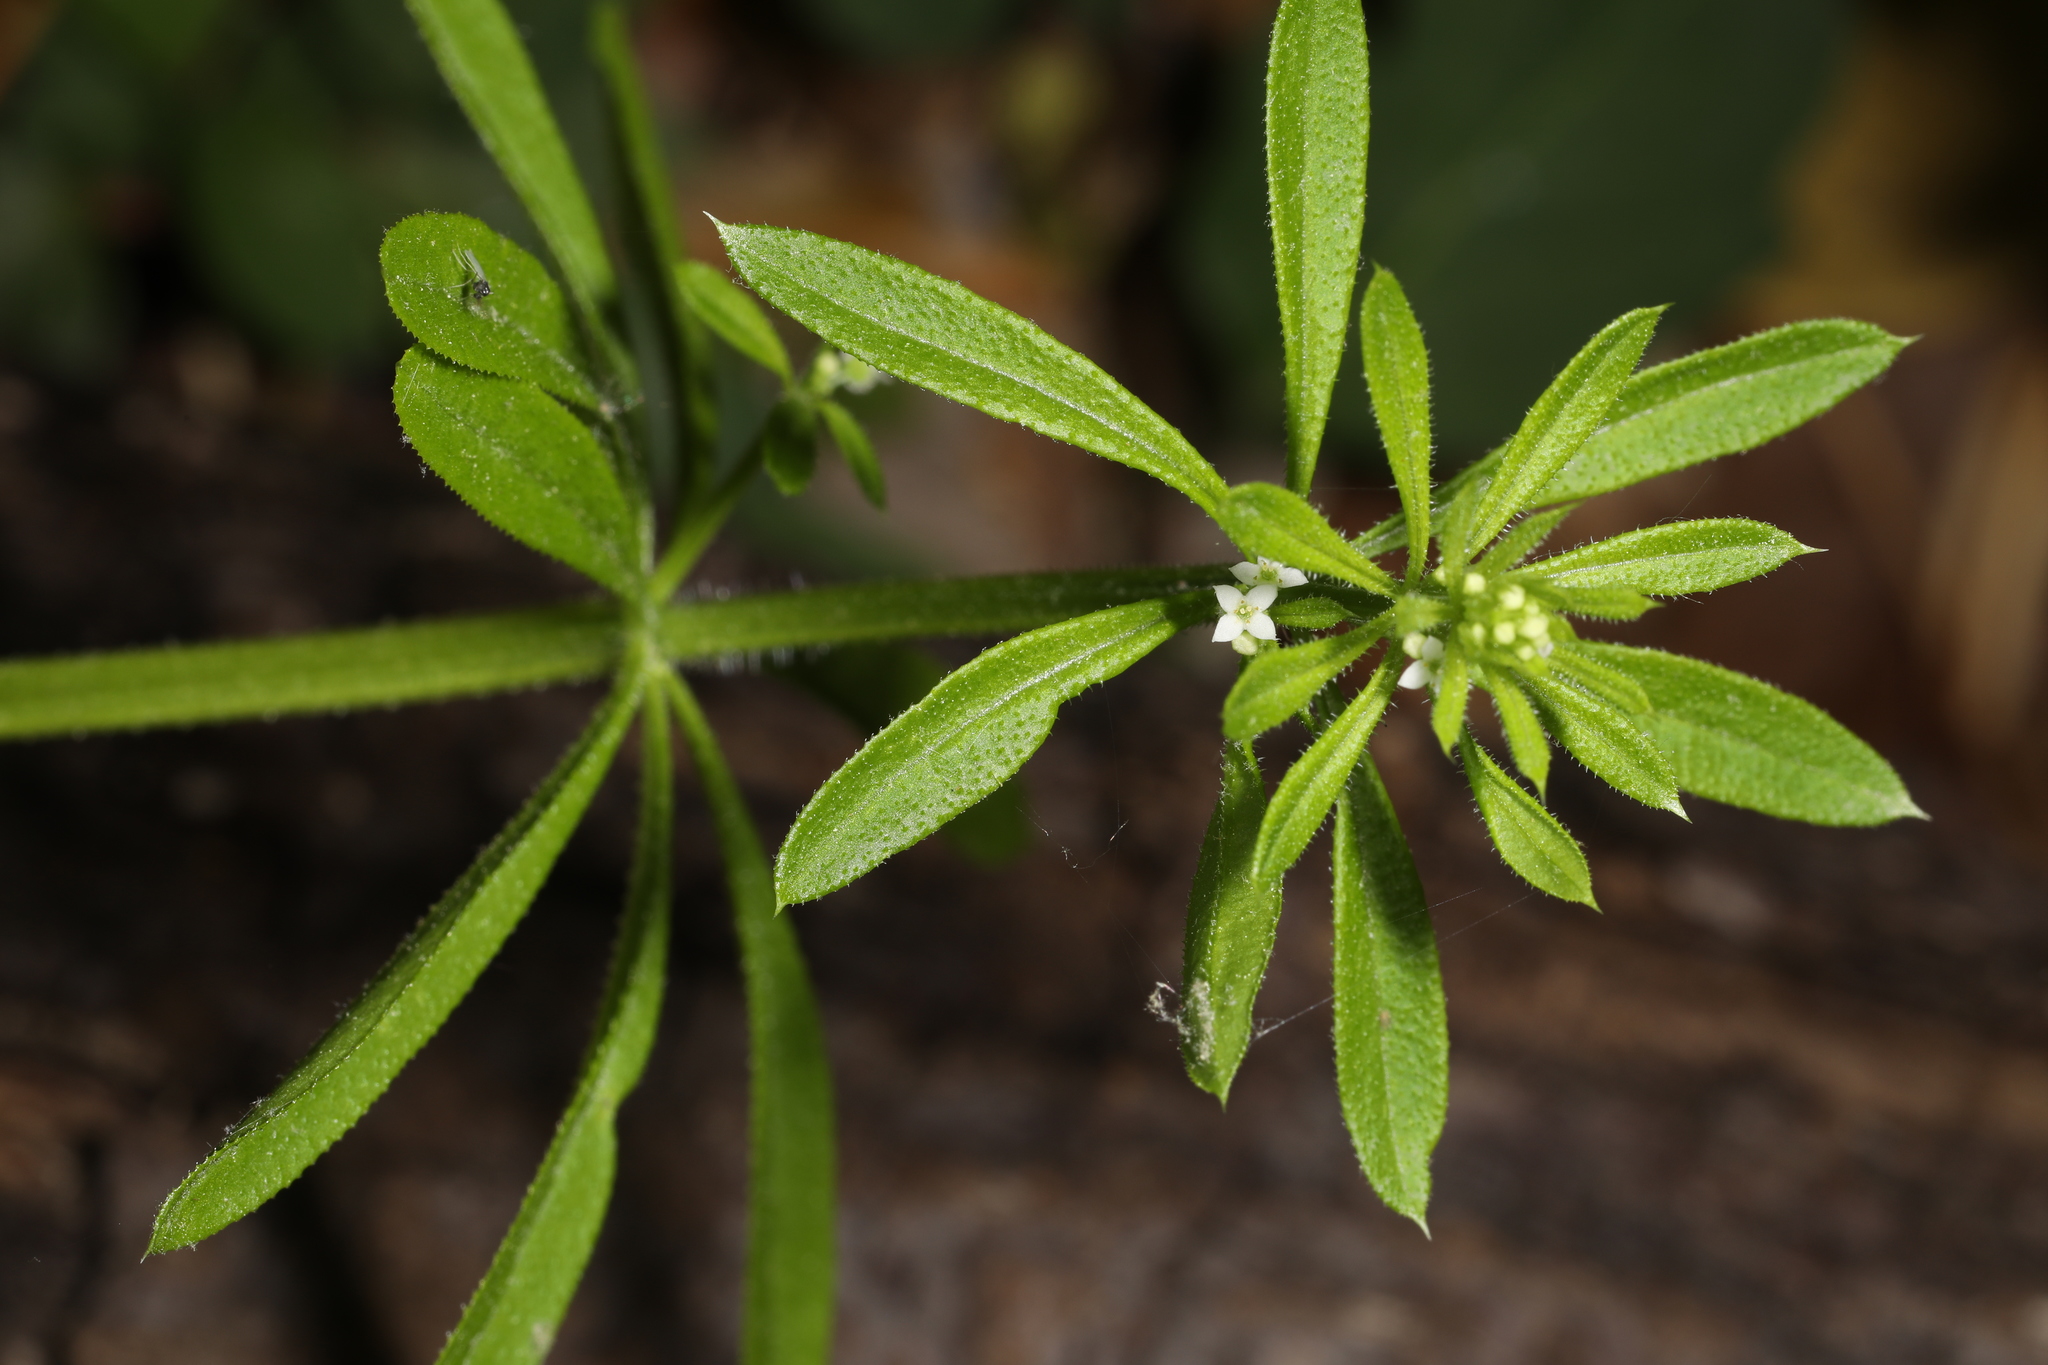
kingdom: Plantae
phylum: Tracheophyta
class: Magnoliopsida
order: Gentianales
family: Rubiaceae
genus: Galium
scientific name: Galium aparine
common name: Cleavers
